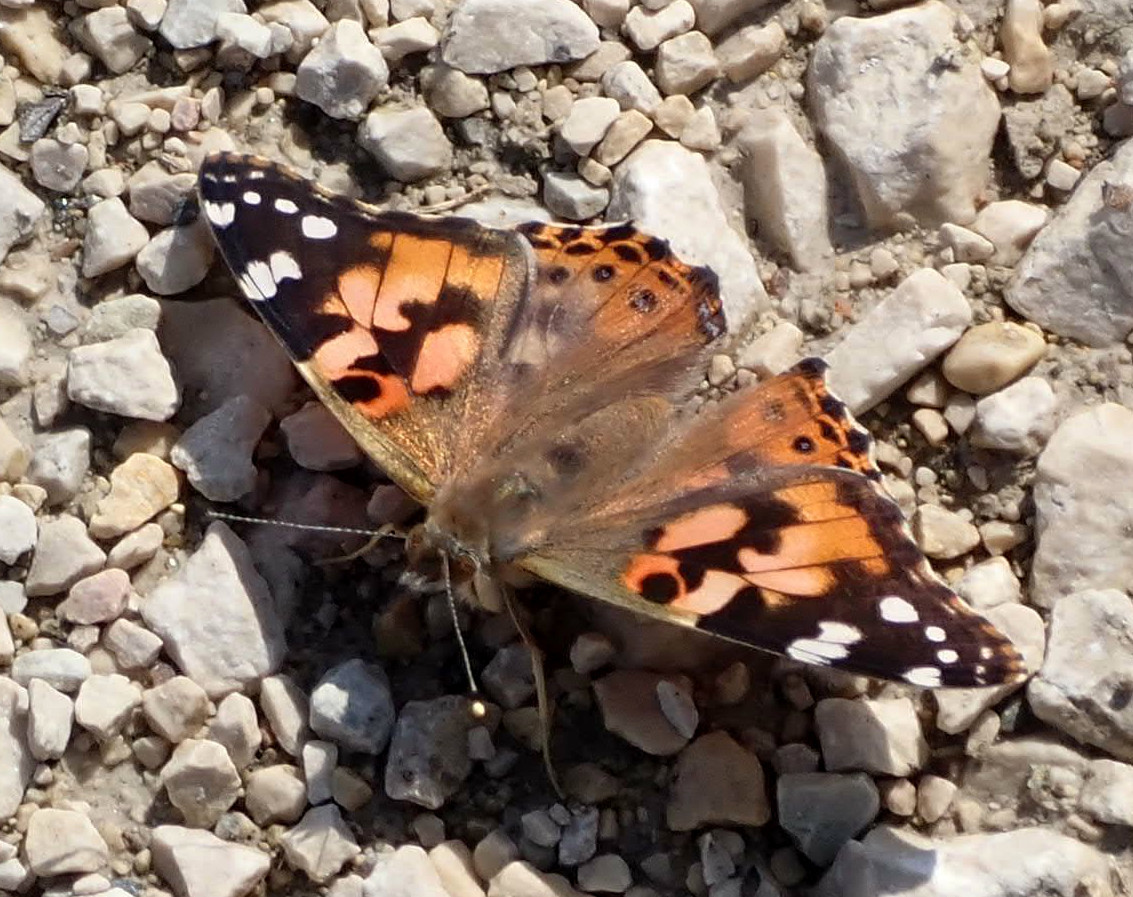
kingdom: Animalia
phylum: Arthropoda
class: Insecta
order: Lepidoptera
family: Nymphalidae
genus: Vanessa
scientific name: Vanessa cardui
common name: Painted lady
